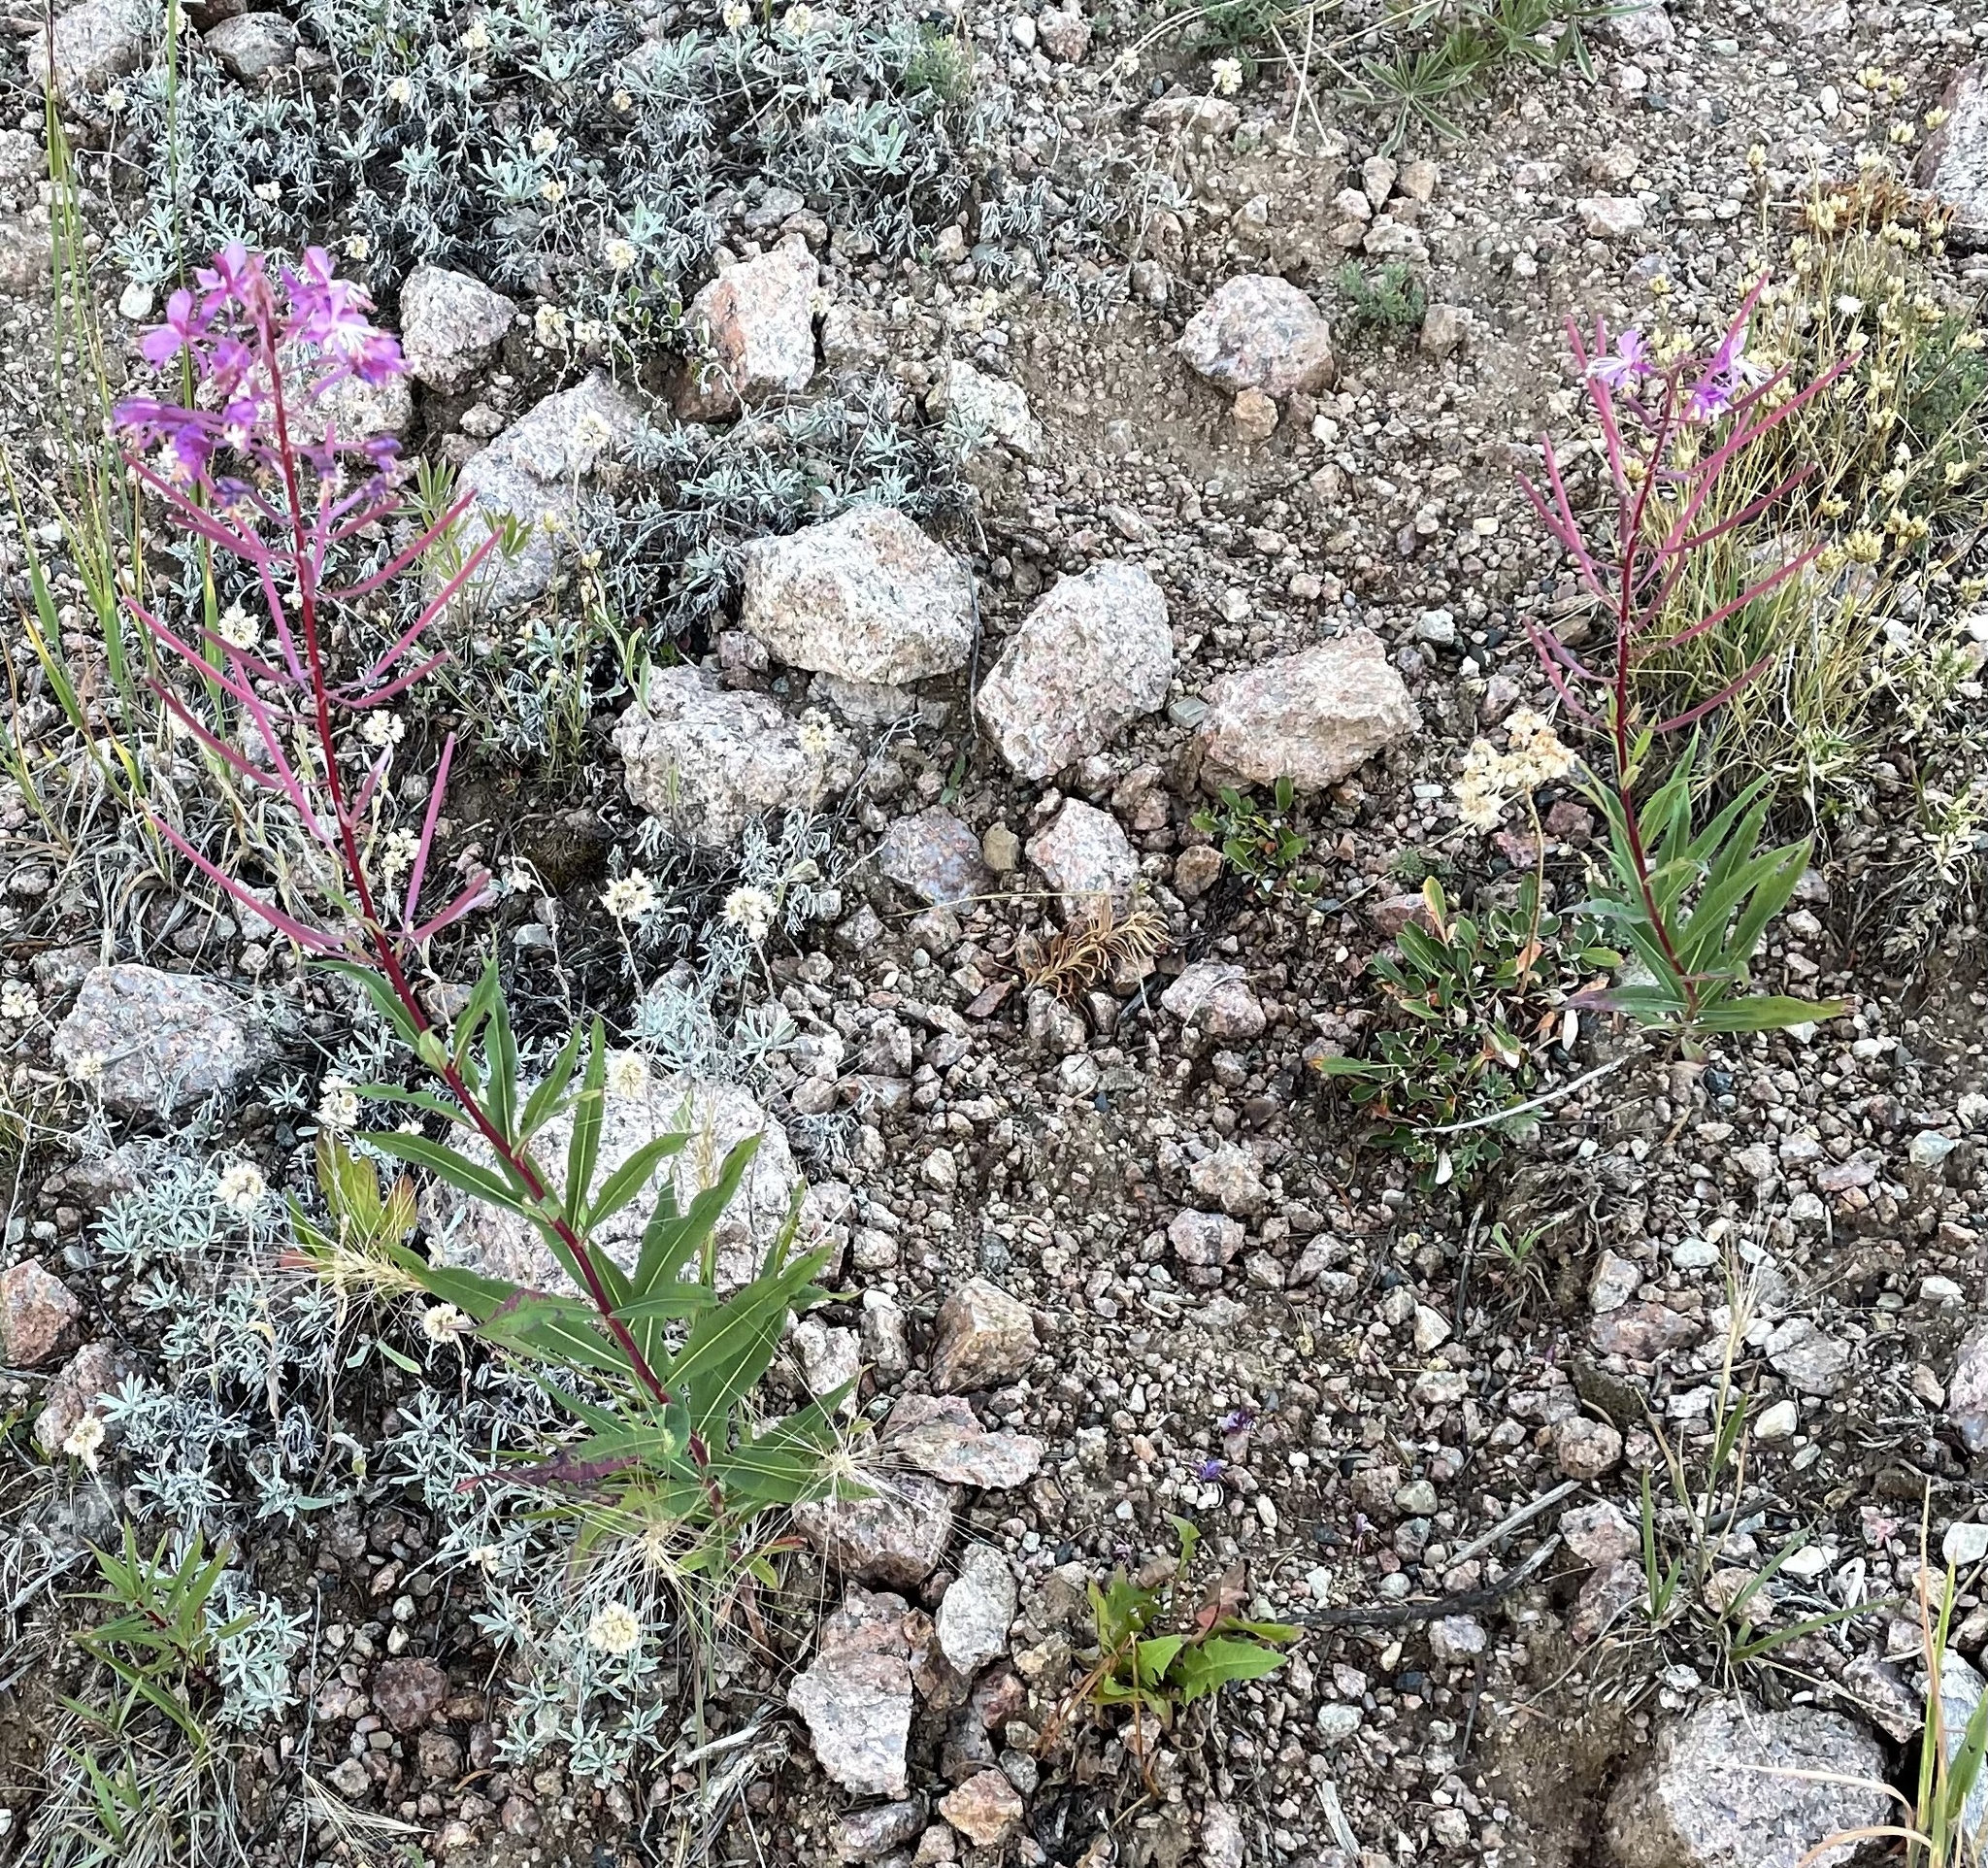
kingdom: Plantae
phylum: Tracheophyta
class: Magnoliopsida
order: Myrtales
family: Onagraceae
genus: Chamaenerion
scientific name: Chamaenerion angustifolium
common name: Fireweed
